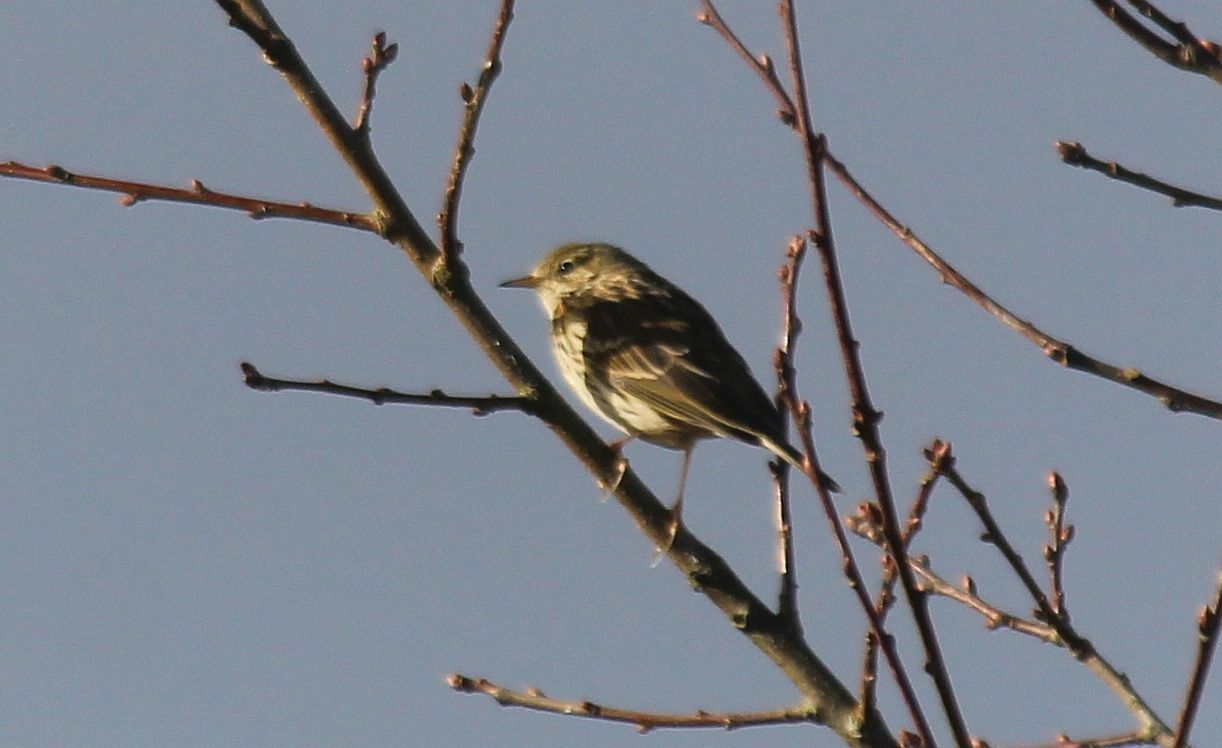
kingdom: Animalia
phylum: Chordata
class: Aves
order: Passeriformes
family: Motacillidae
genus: Anthus
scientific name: Anthus pratensis
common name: Meadow pipit
